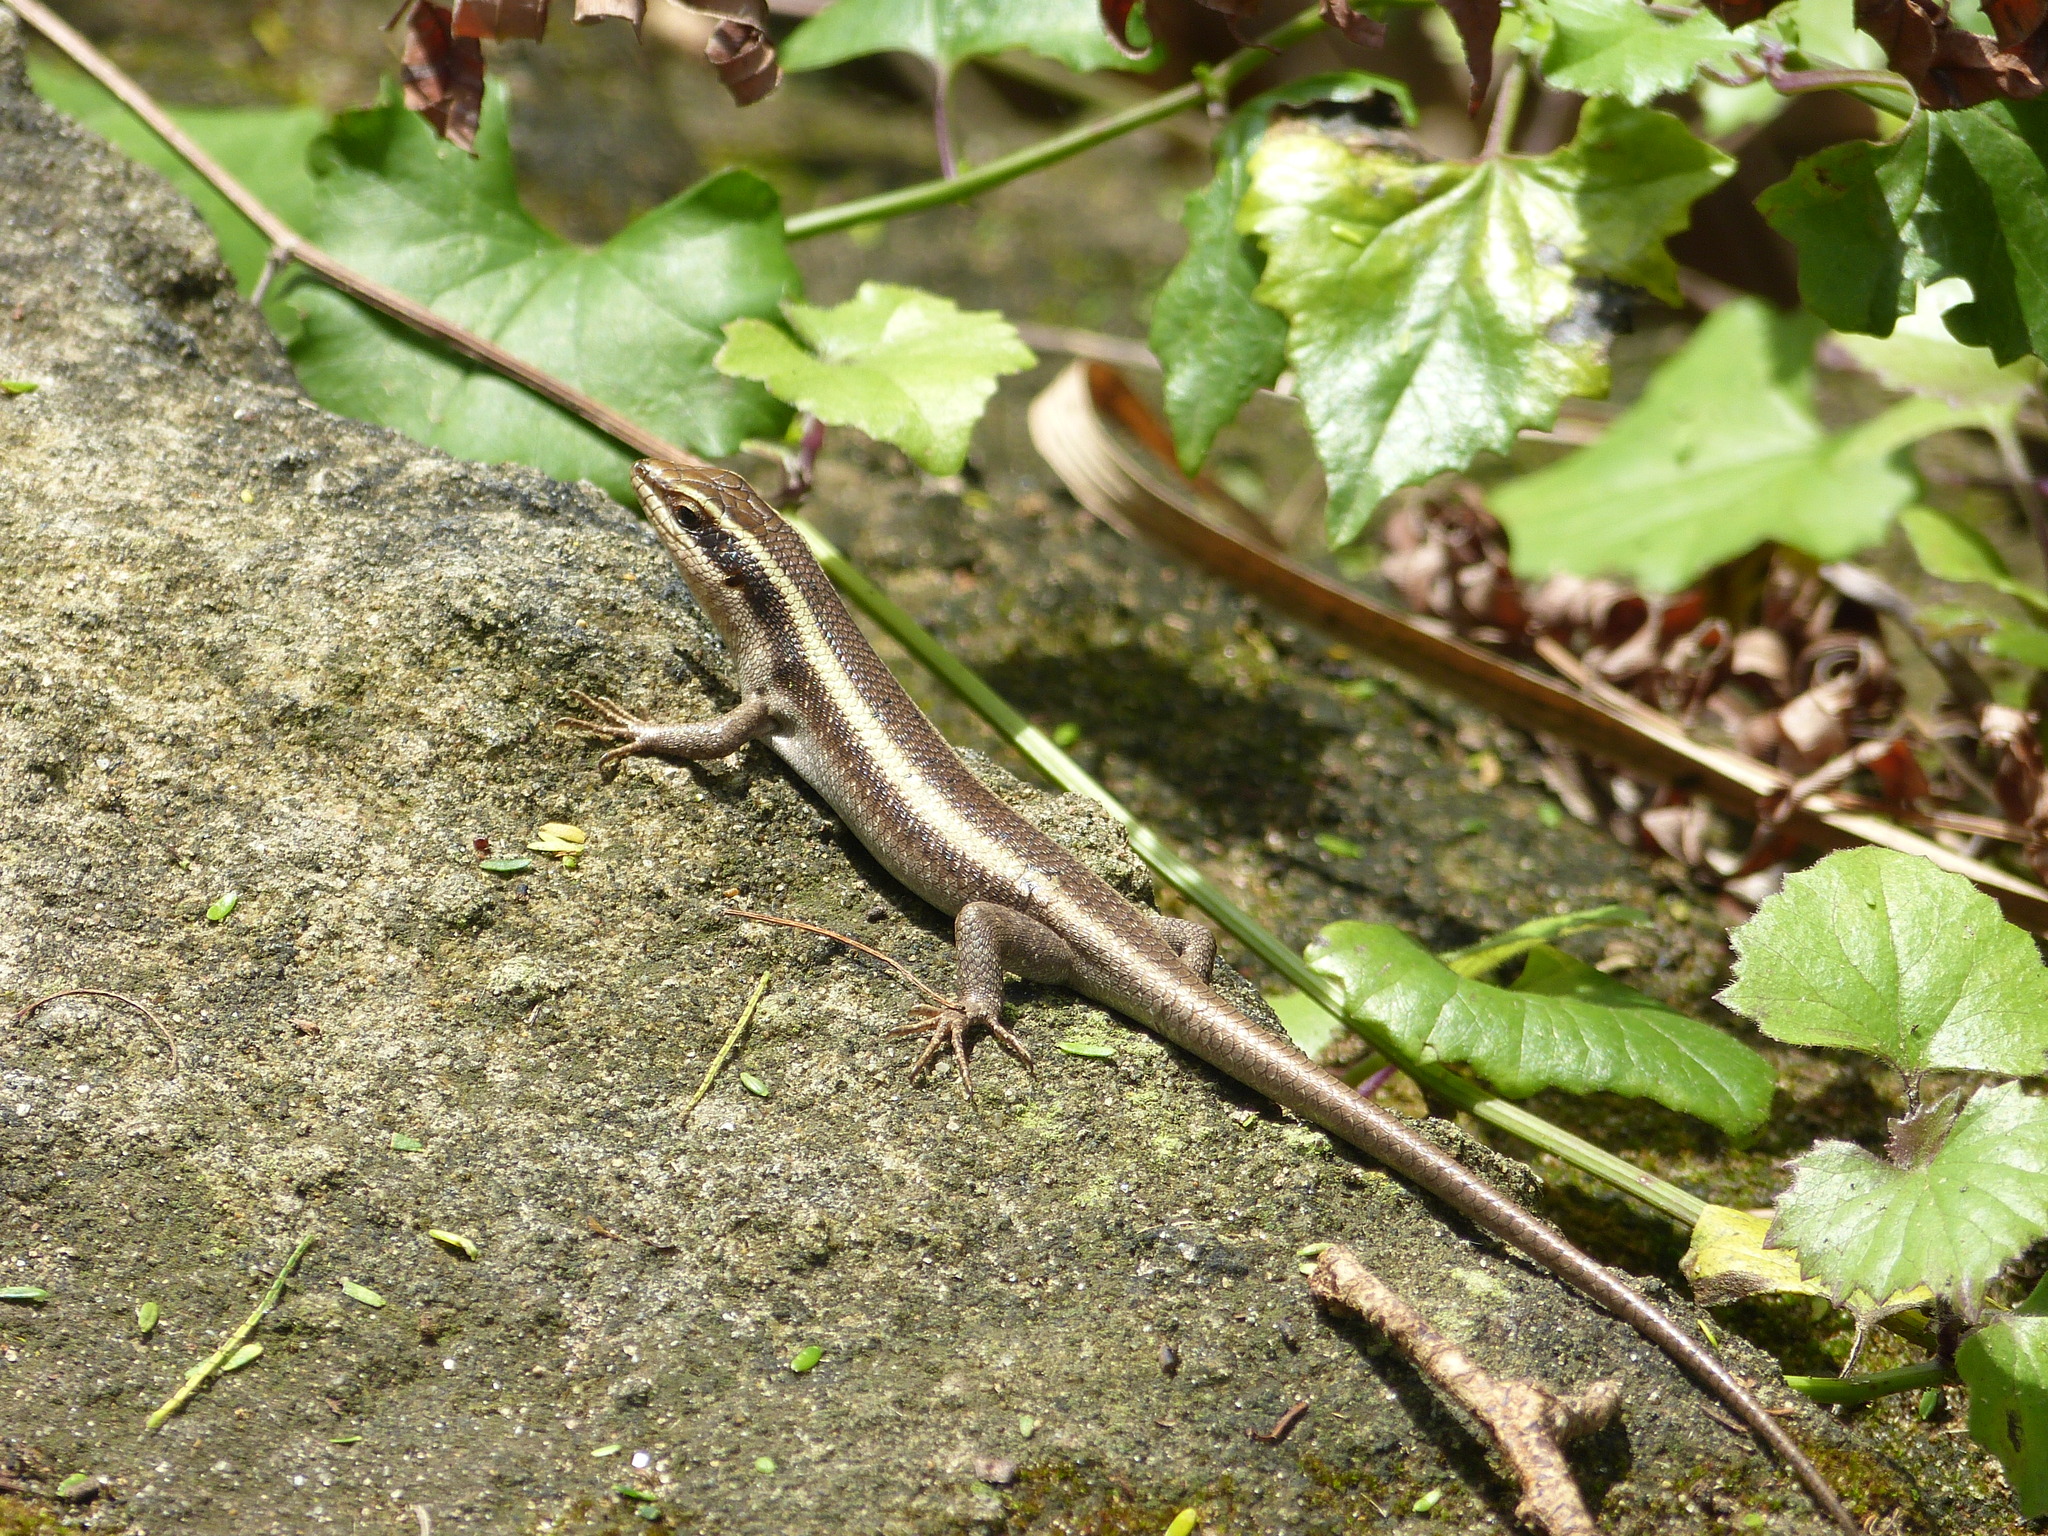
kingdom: Animalia
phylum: Chordata
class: Squamata
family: Scincidae
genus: Trachylepis
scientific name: Trachylepis striata
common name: African striped mabuya
